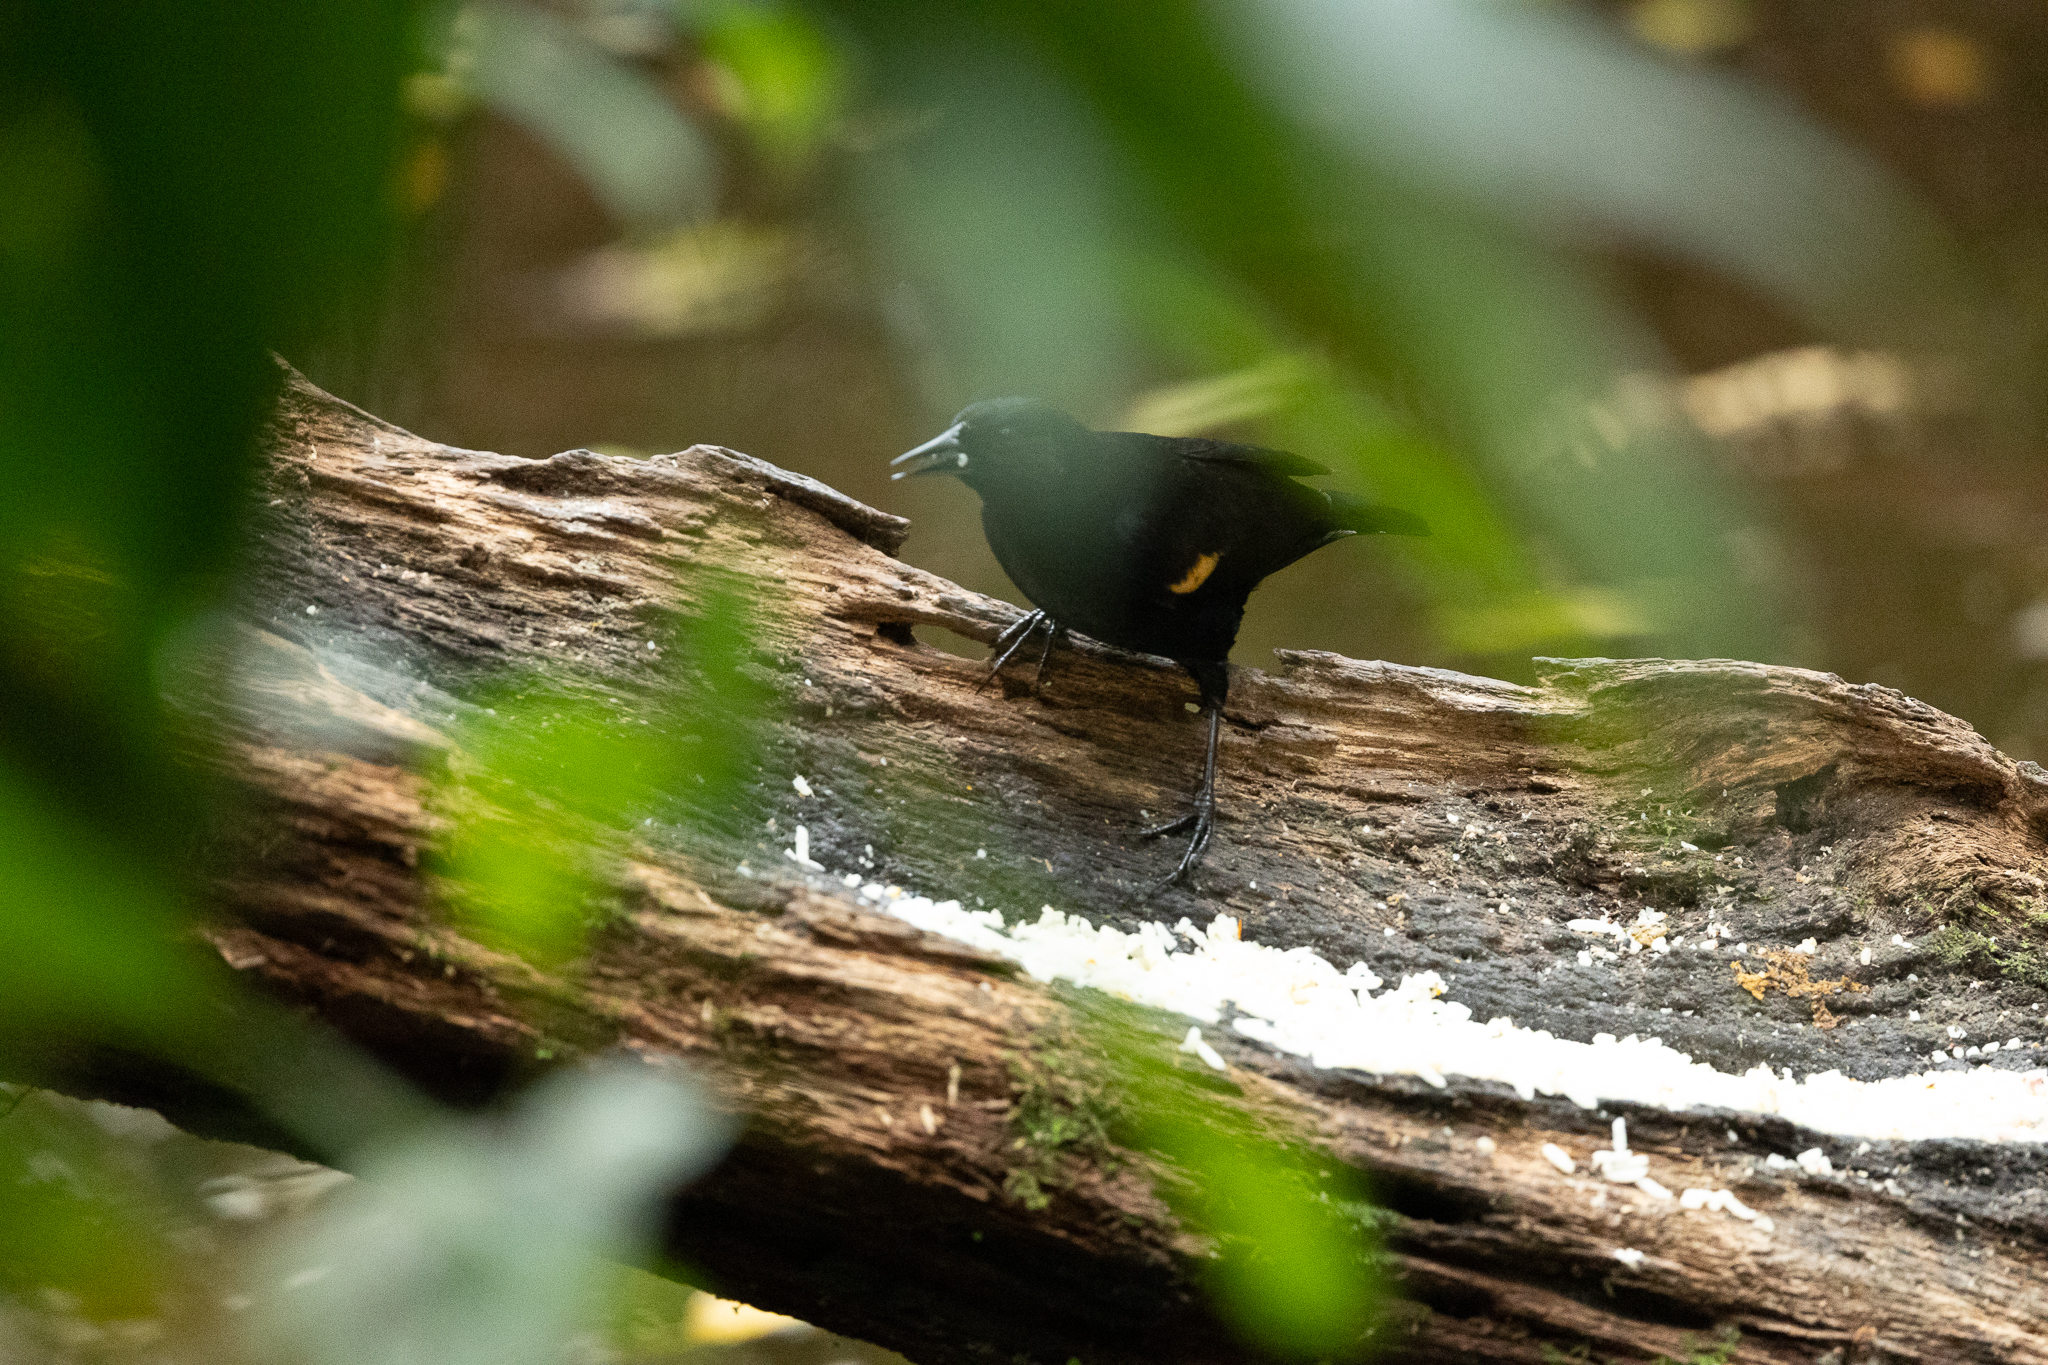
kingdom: Animalia
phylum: Chordata
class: Aves
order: Passeriformes
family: Icteridae
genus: Agelaius
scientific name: Agelaius phoeniceus
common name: Red-winged blackbird
